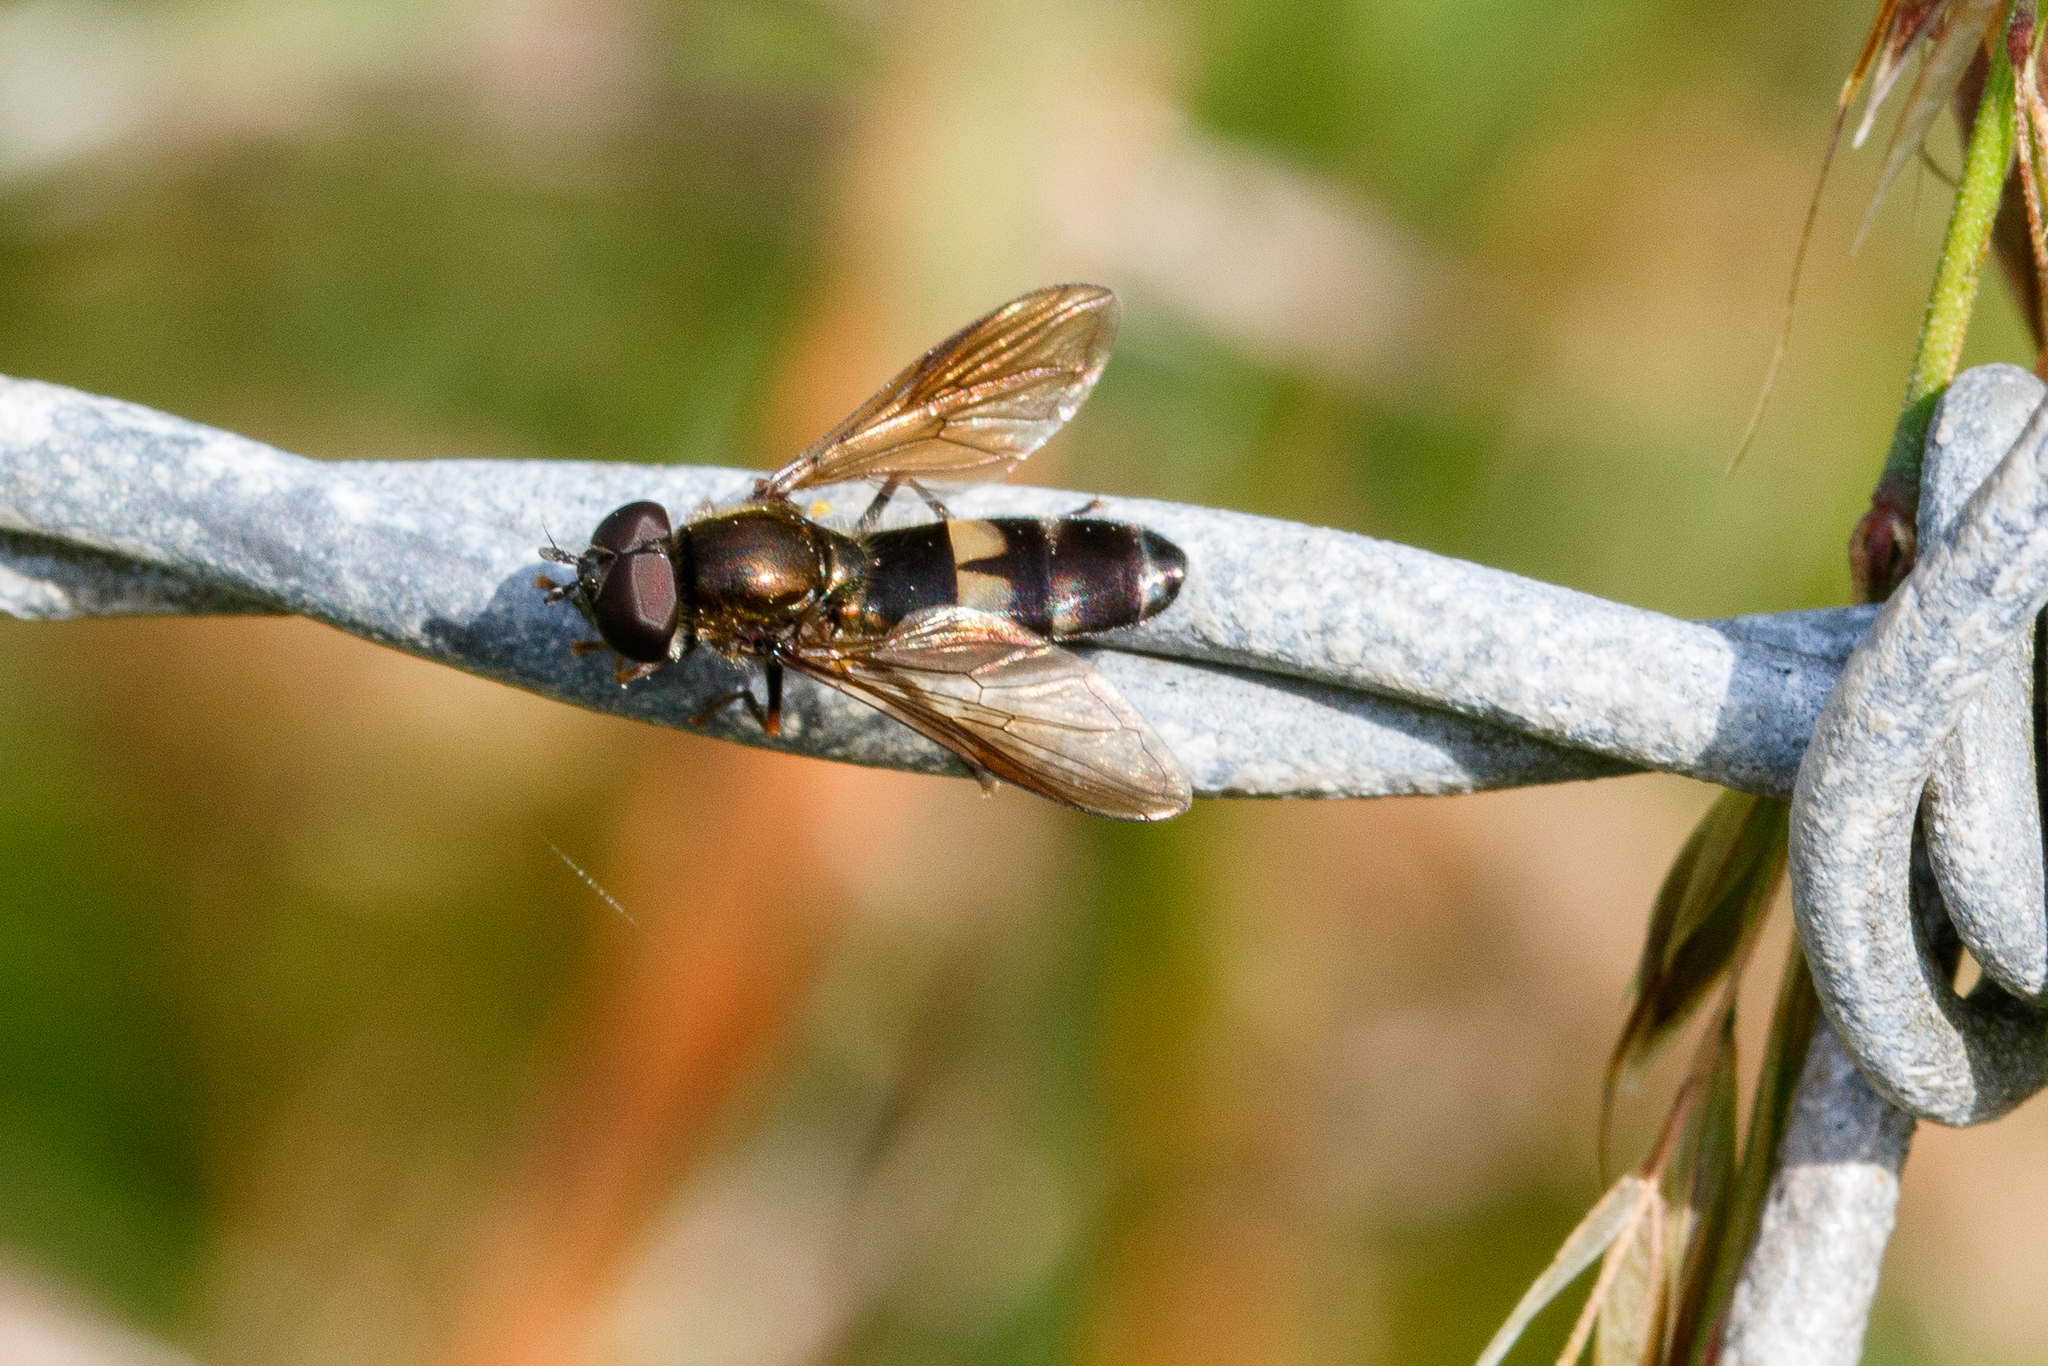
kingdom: Animalia
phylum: Arthropoda
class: Insecta
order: Diptera
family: Syrphidae
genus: Pyrophaena
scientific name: Pyrophaena rosarum
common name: Fourspot sedgesitter
